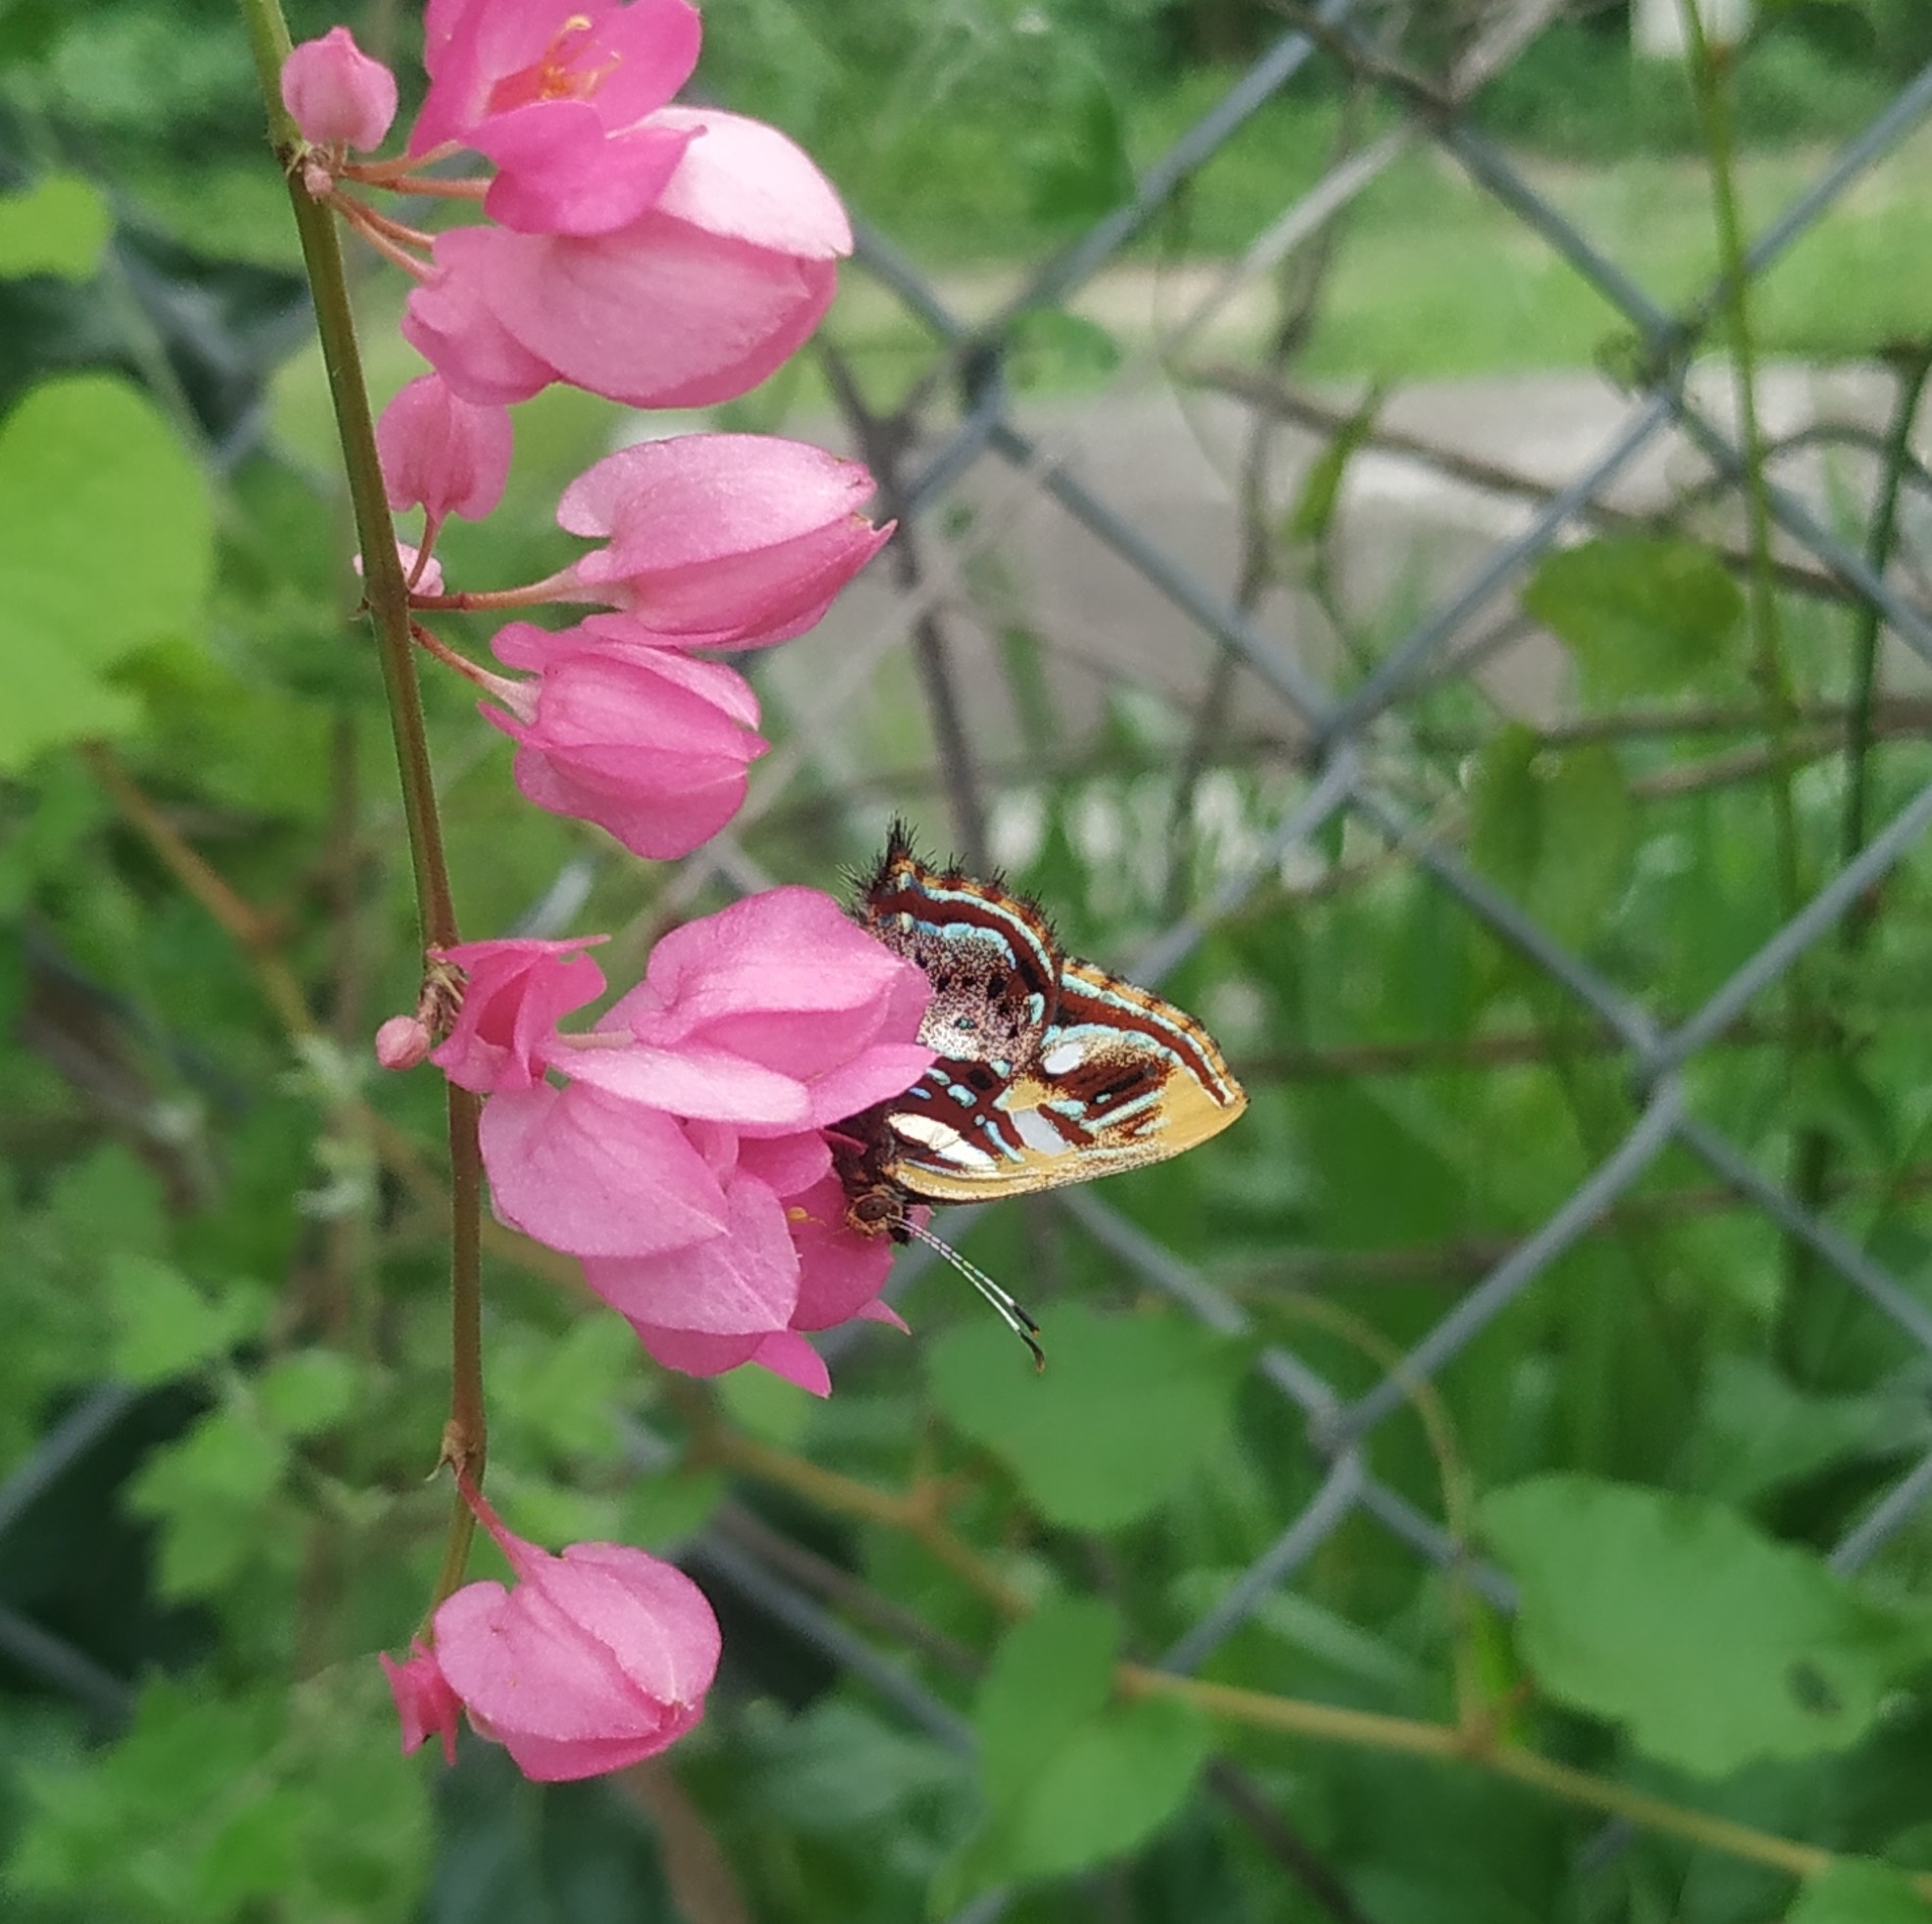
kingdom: Animalia
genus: Anteros
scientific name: Anteros carausius
